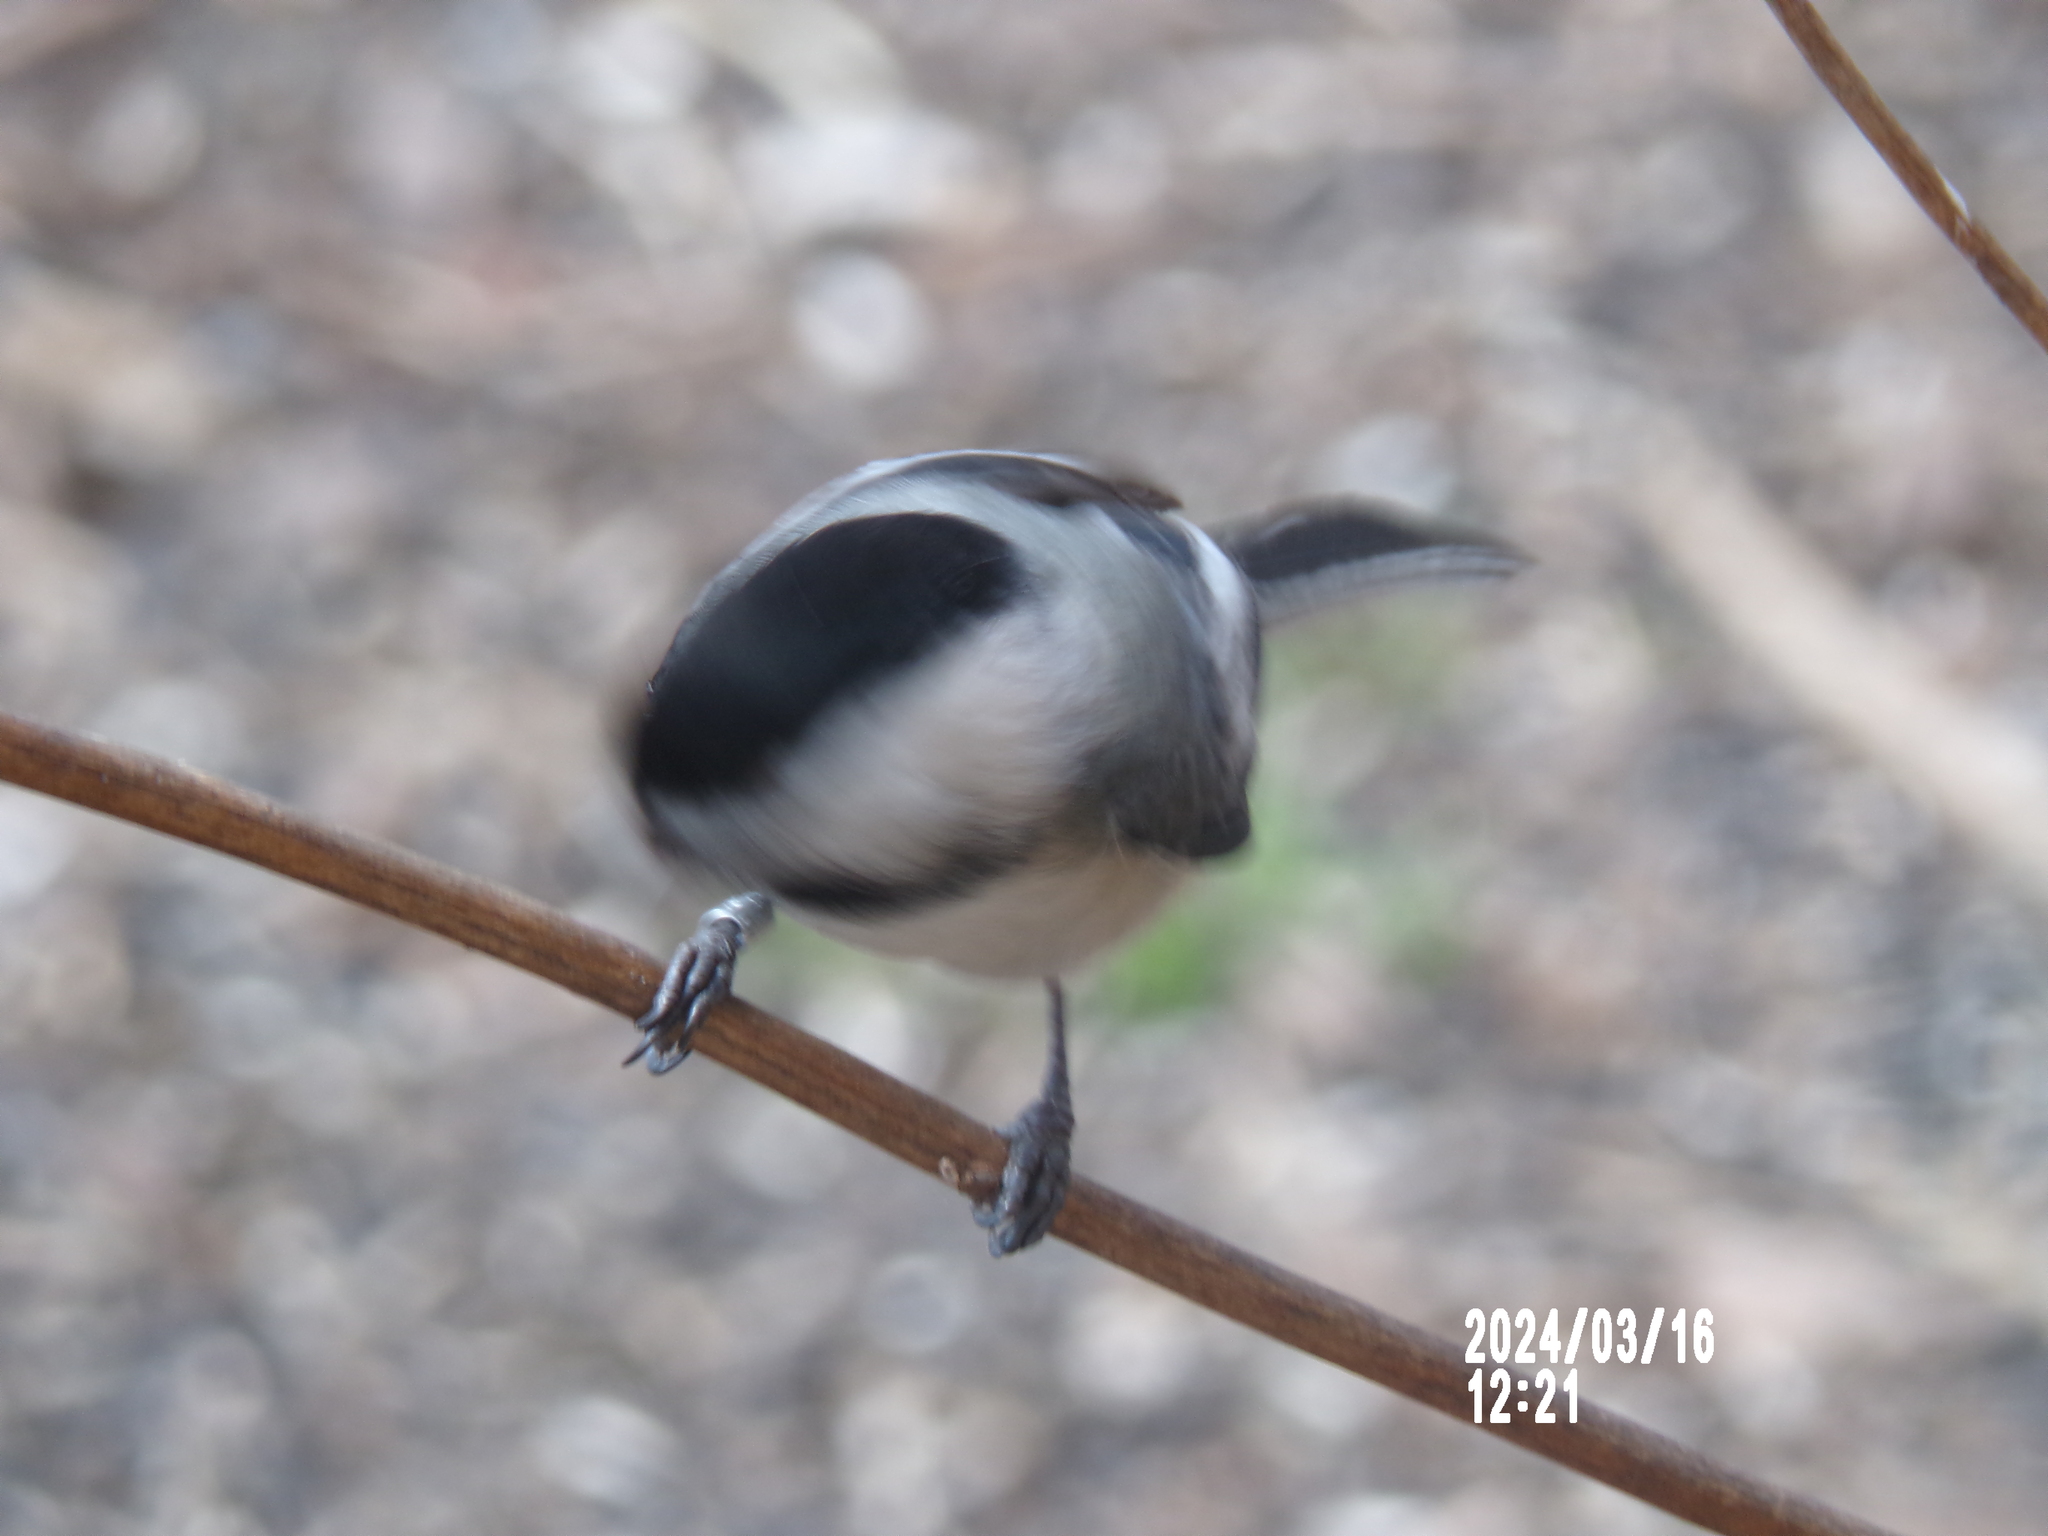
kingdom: Animalia
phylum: Chordata
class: Aves
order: Passeriformes
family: Paridae
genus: Poecile
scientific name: Poecile atricapillus
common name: Black-capped chickadee
